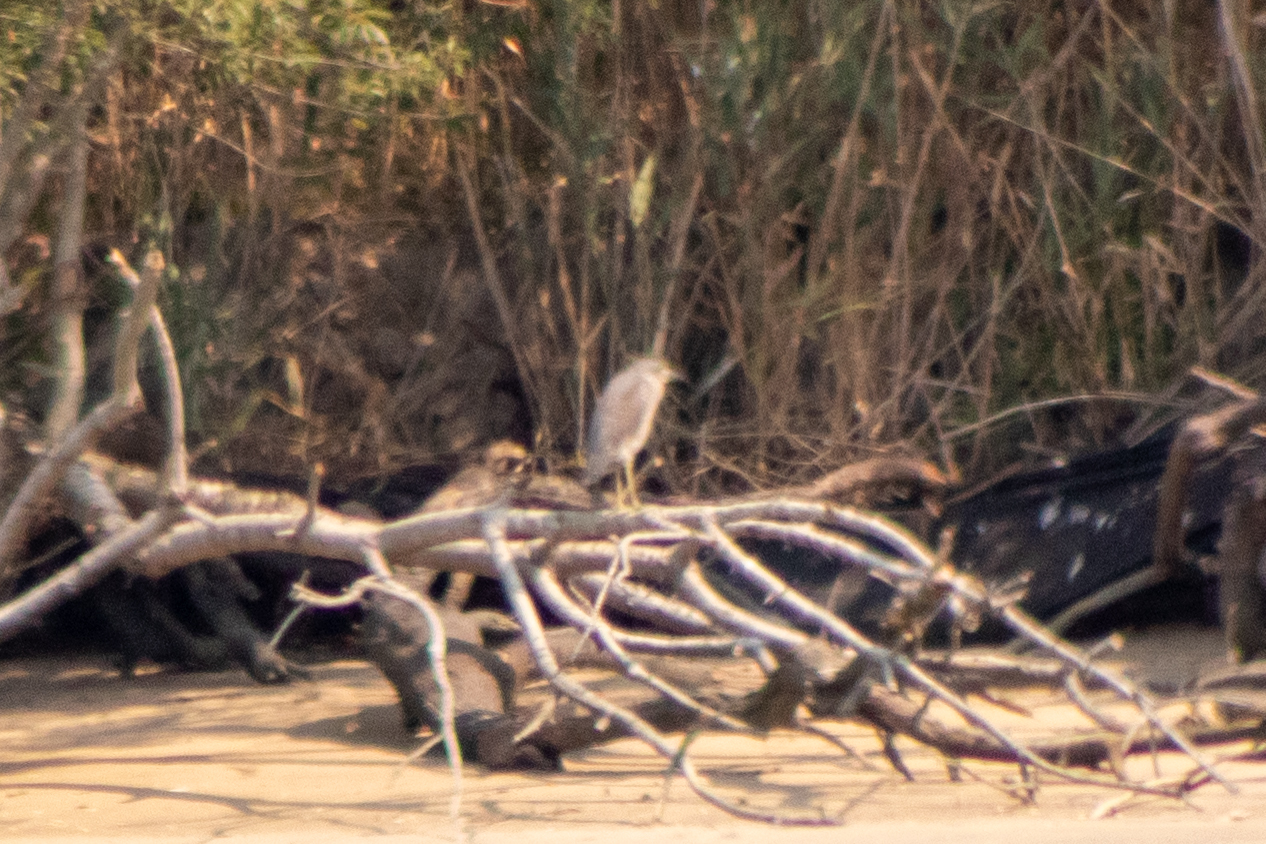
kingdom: Animalia
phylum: Chordata
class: Aves
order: Pelecaniformes
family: Ardeidae
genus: Nycticorax
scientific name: Nycticorax nycticorax
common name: Black-crowned night heron
